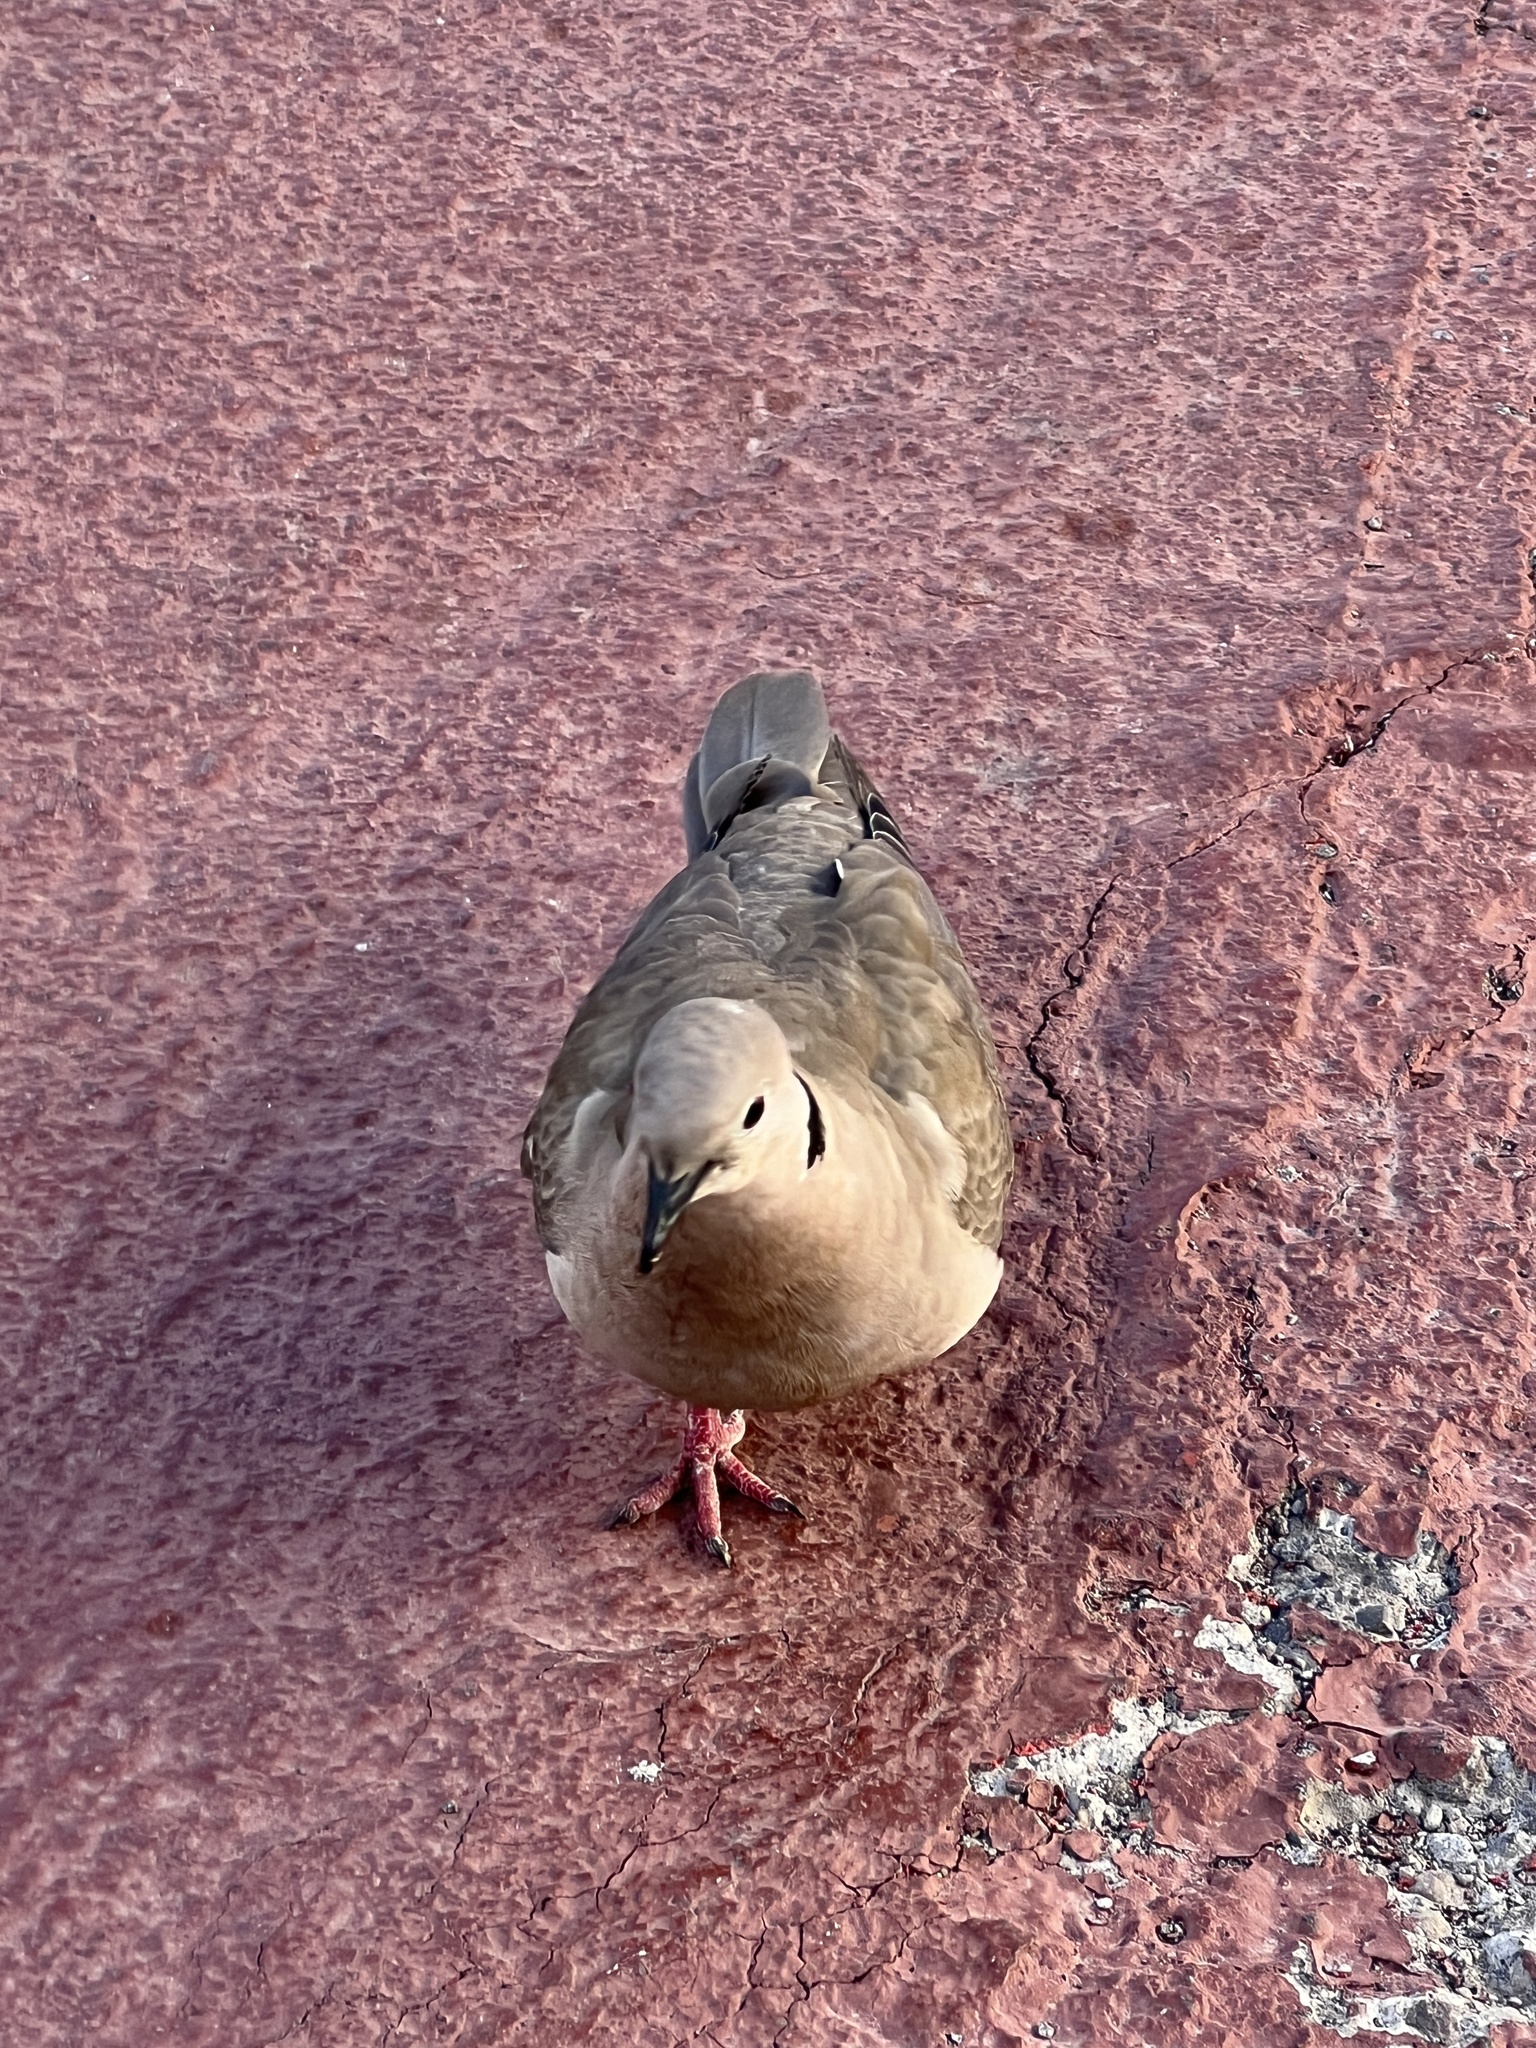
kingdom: Animalia
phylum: Chordata
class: Aves
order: Columbiformes
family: Columbidae
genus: Streptopelia
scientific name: Streptopelia decaocto
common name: Eurasian collared dove
